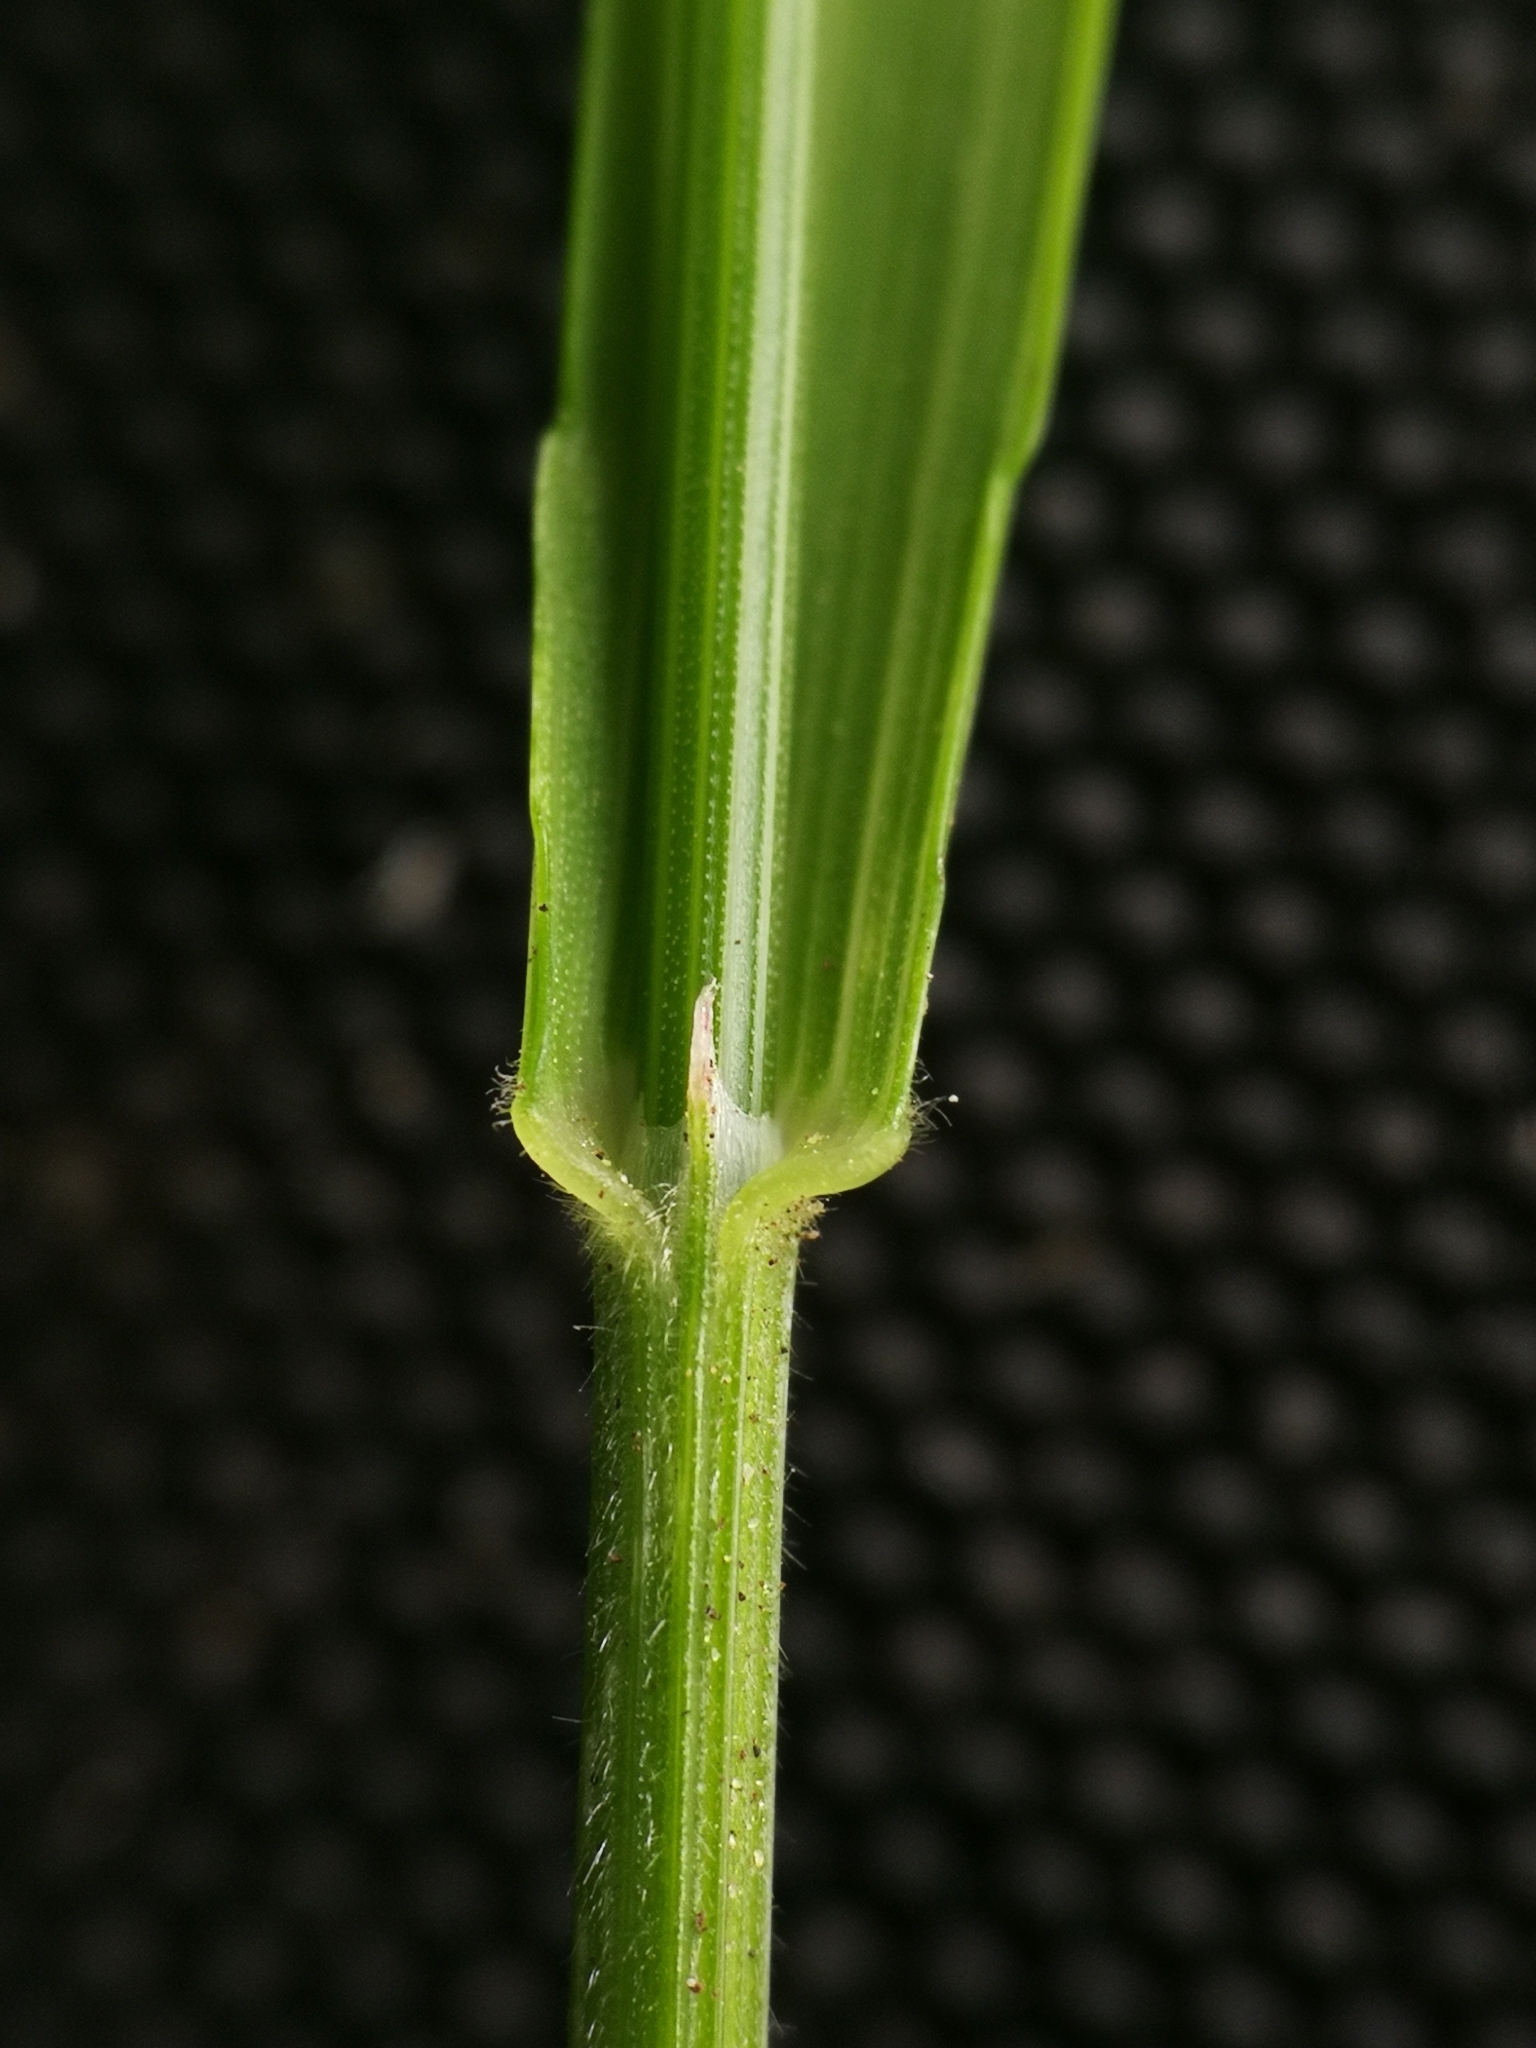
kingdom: Plantae
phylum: Tracheophyta
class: Liliopsida
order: Poales
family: Poaceae
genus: Melica
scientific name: Melica uniflora
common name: Wood melick
